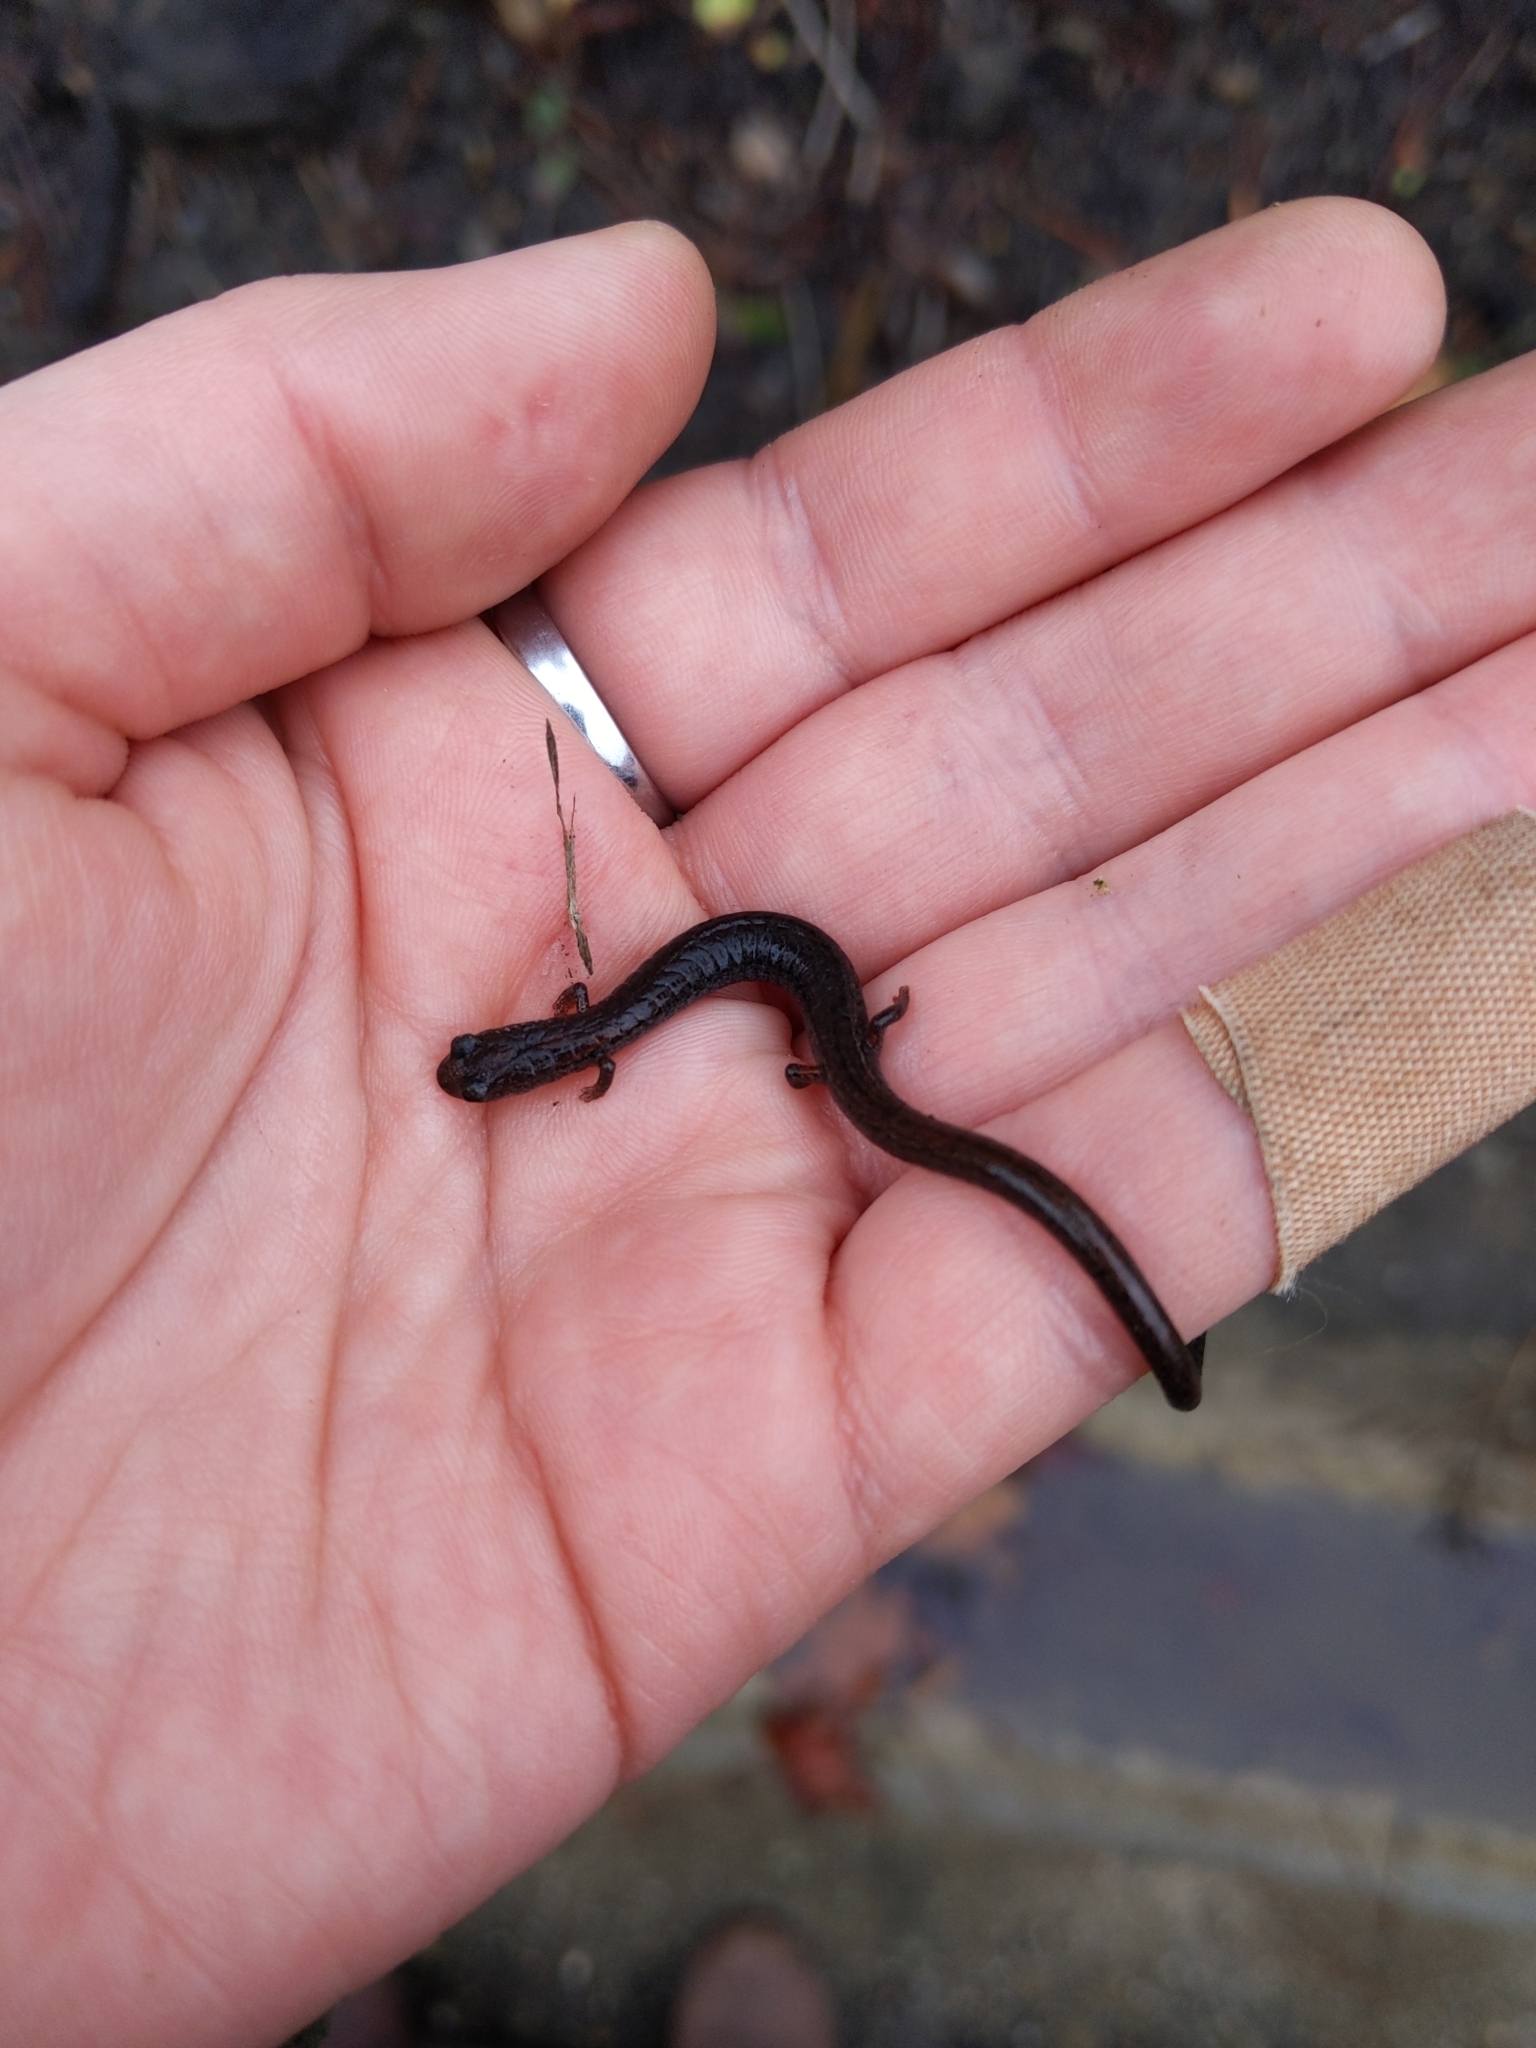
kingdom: Animalia
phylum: Chordata
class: Amphibia
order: Caudata
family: Plethodontidae
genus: Batrachoseps
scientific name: Batrachoseps attenuatus
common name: California slender salamander
